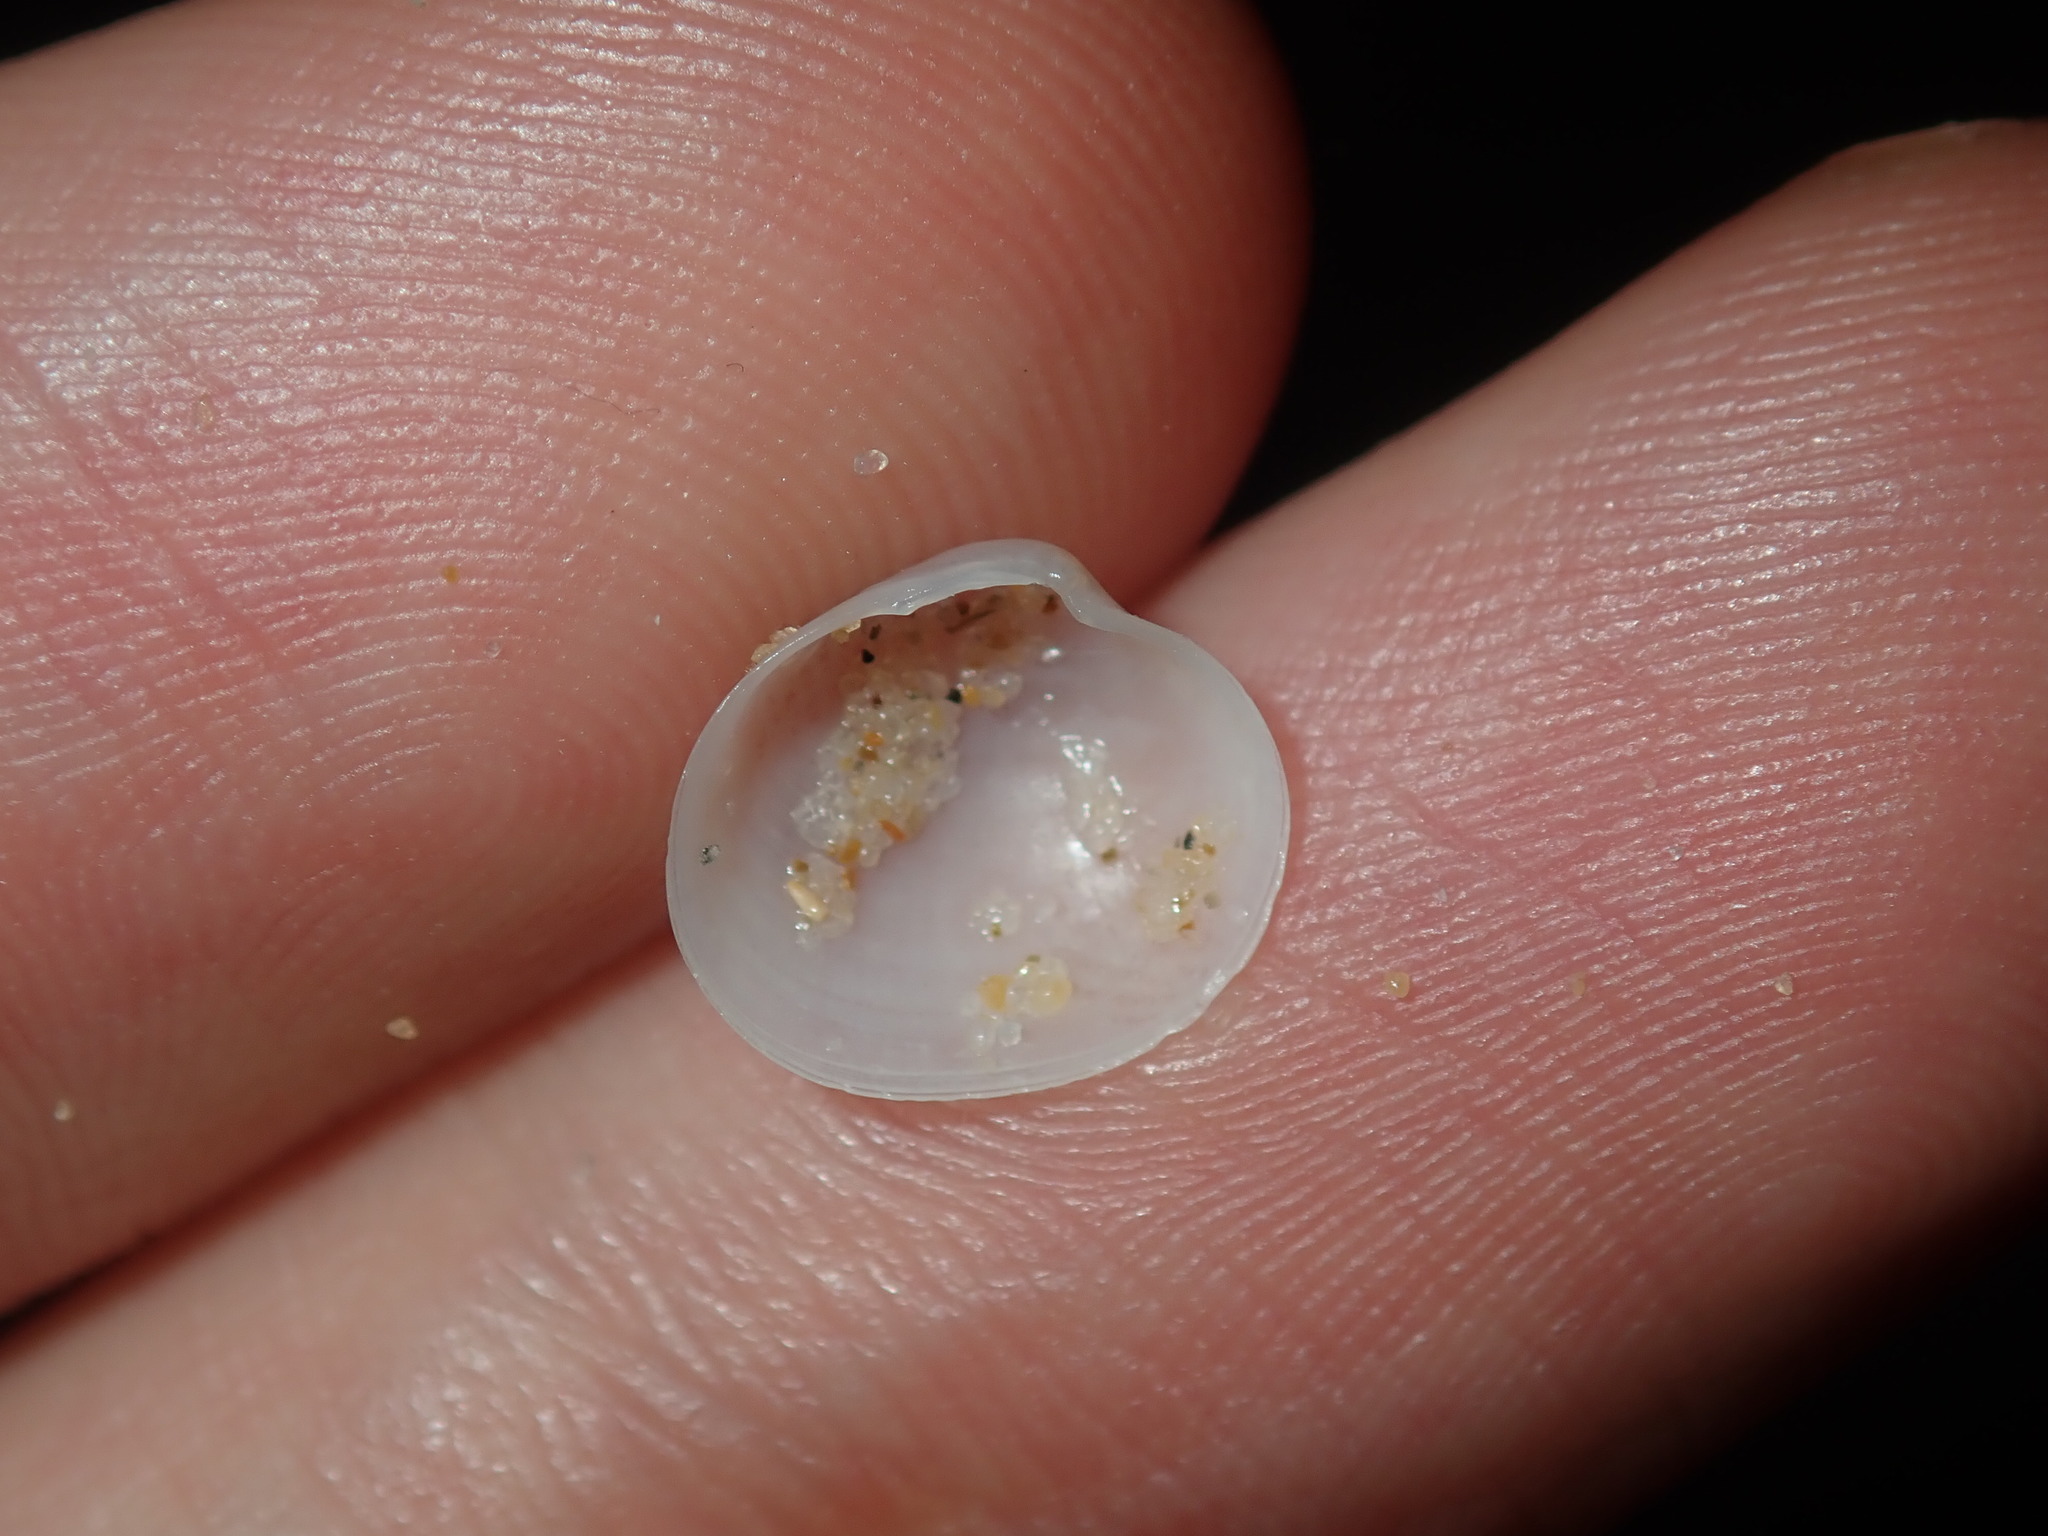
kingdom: Animalia
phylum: Mollusca
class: Bivalvia
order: Galeommatida
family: Galeommatidae
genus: Scintillula
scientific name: Scintillula solida
